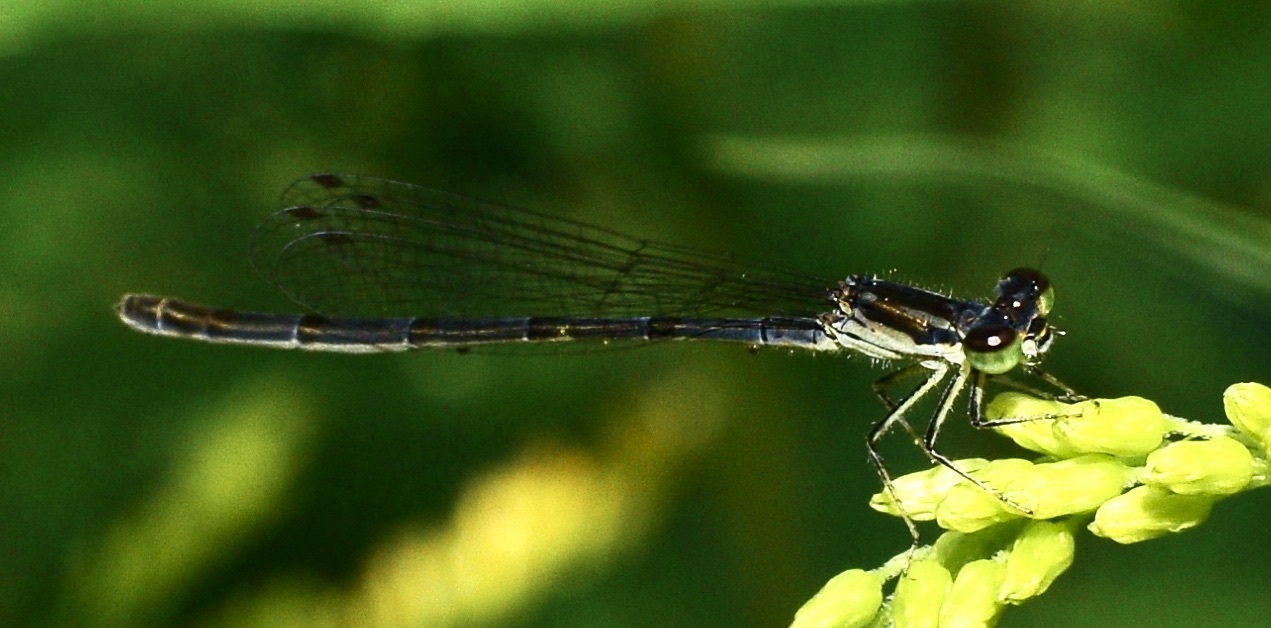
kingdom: Animalia
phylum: Arthropoda
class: Insecta
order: Odonata
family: Coenagrionidae
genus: Ischnura
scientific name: Ischnura posita
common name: Fragile forktail
